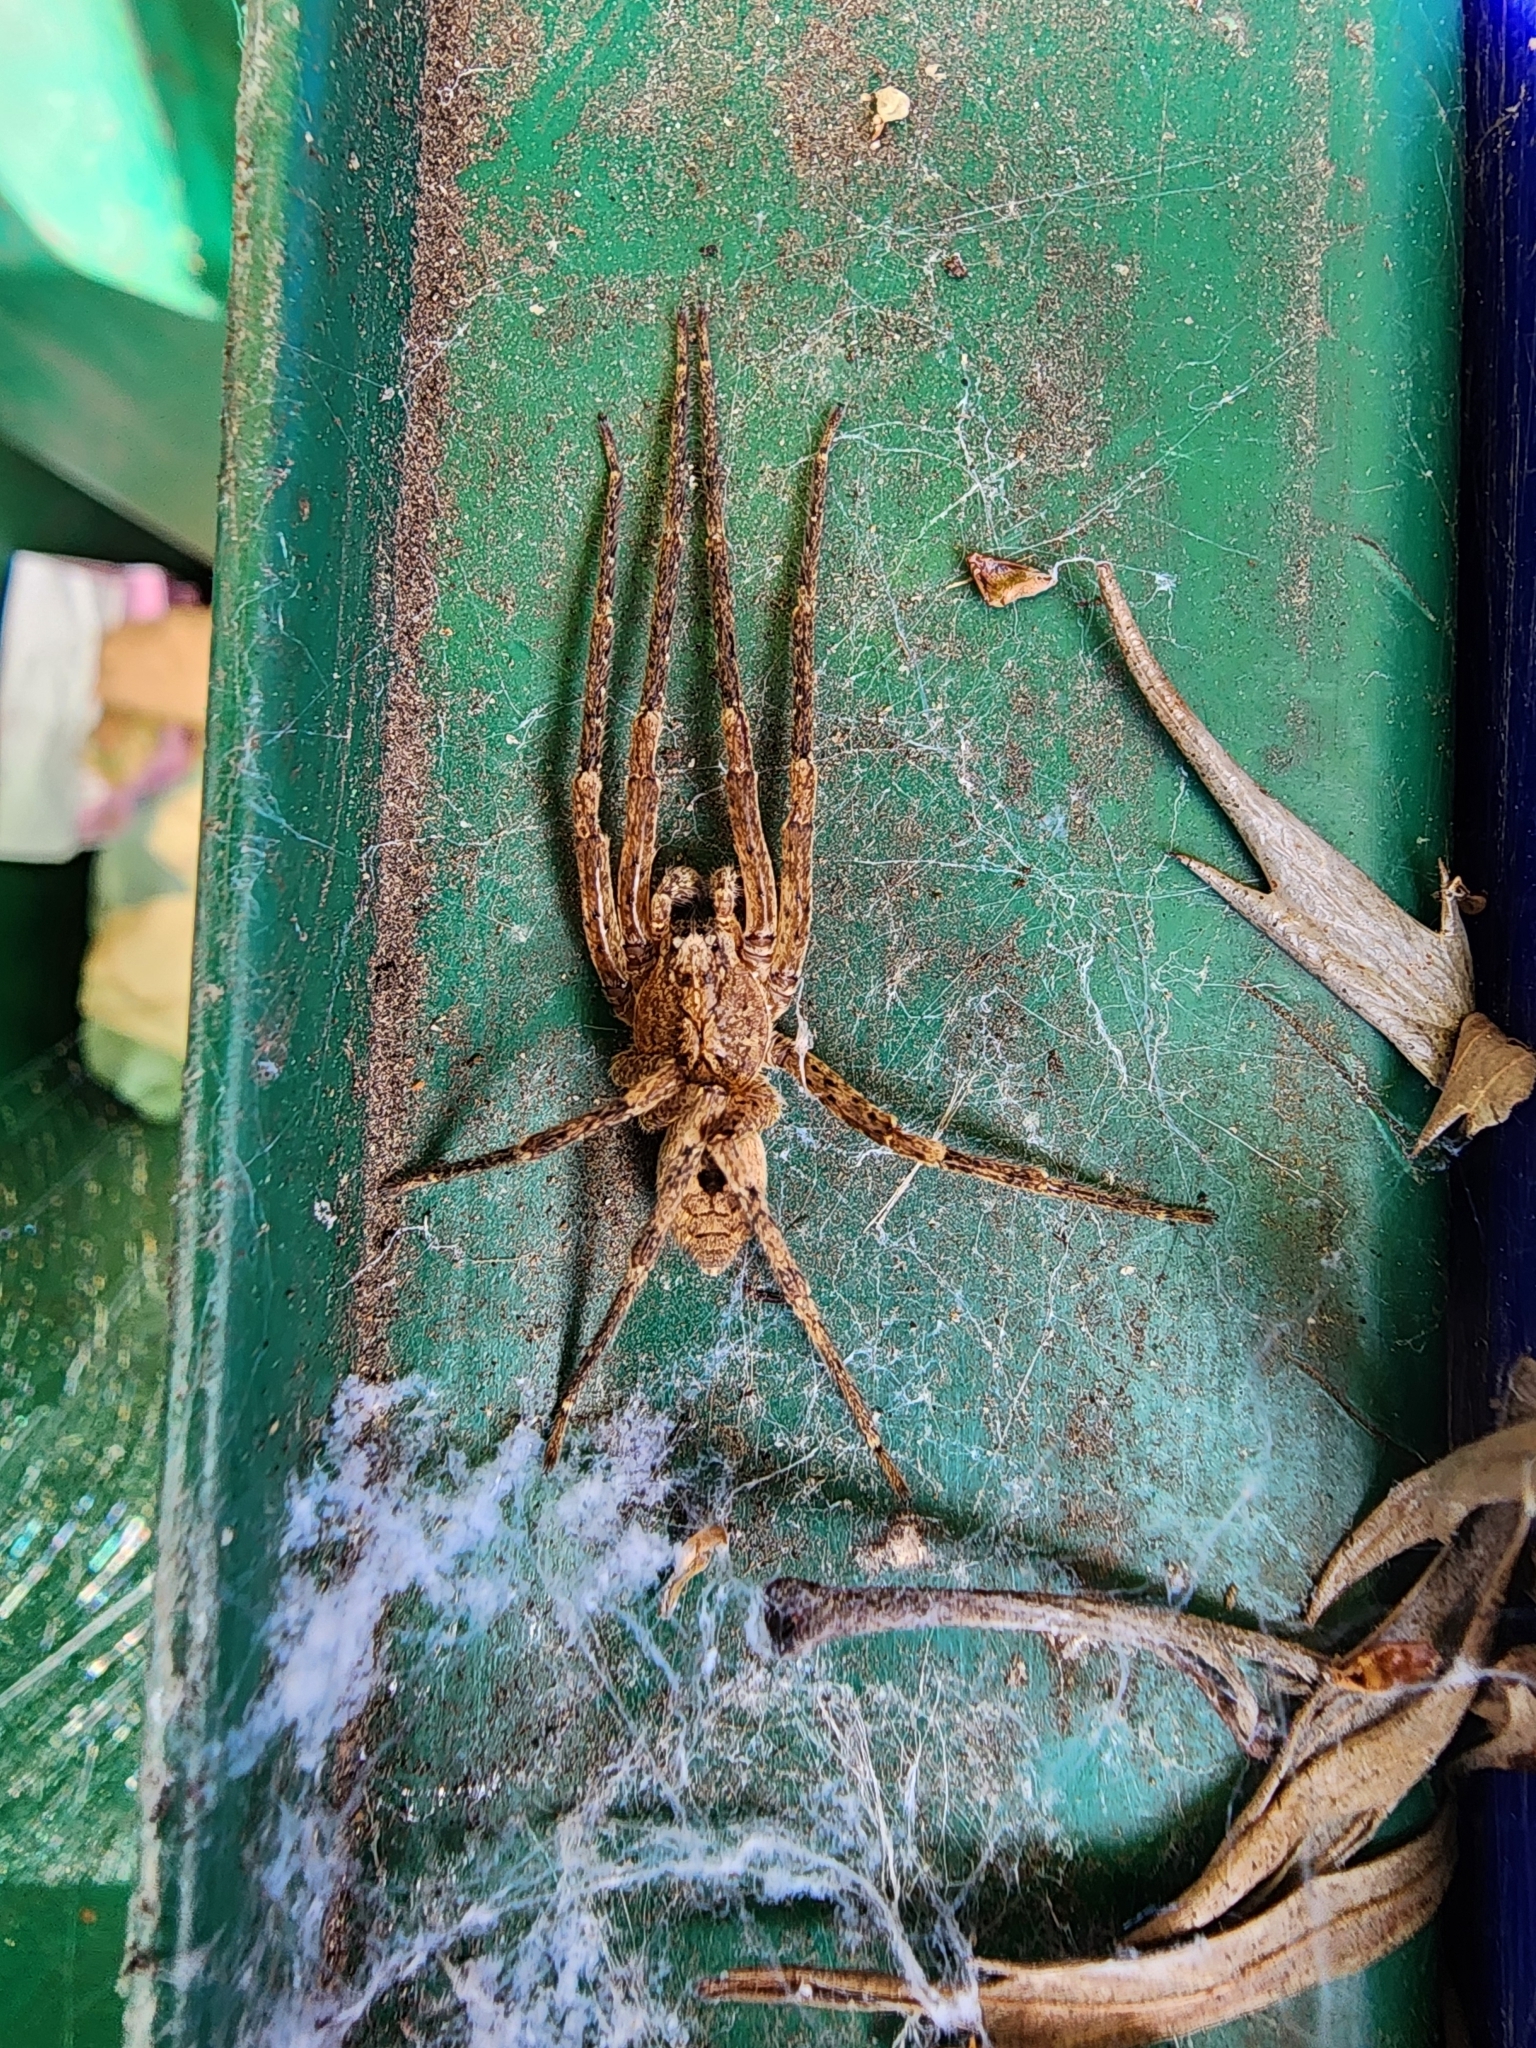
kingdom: Animalia
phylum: Arthropoda
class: Arachnida
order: Araneae
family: Zoropsidae
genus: Zoropsis
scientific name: Zoropsis spinimana
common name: Zoropsid spider
